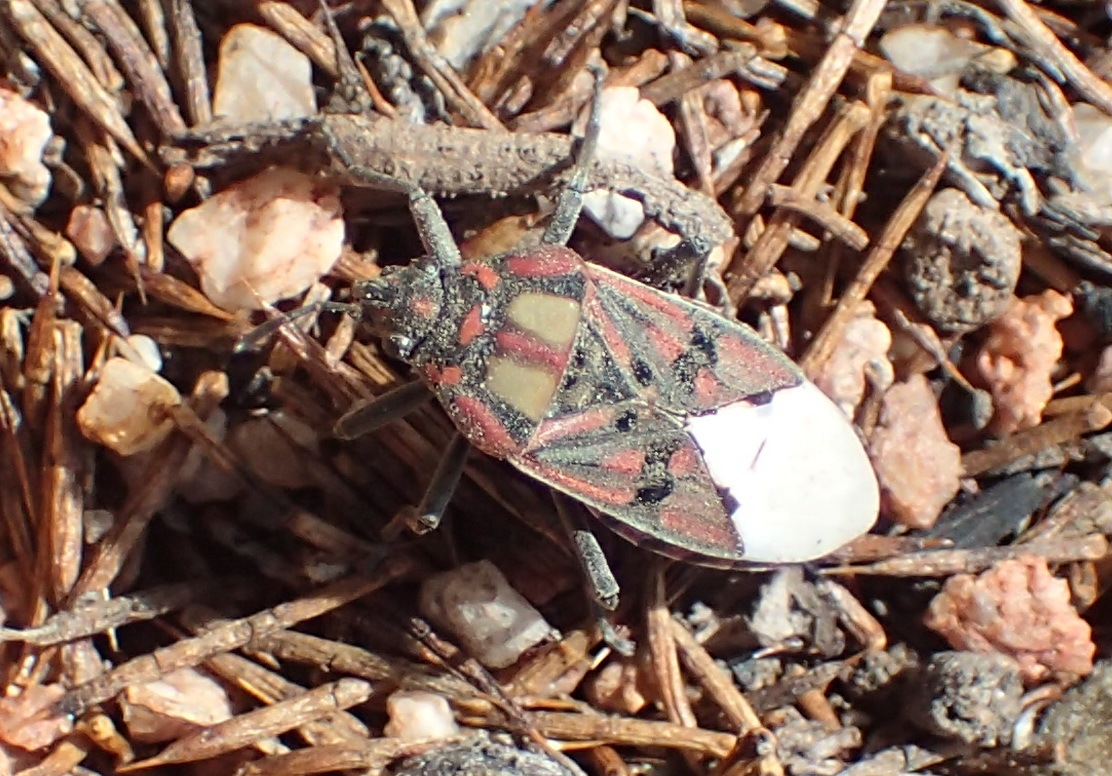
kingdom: Animalia
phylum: Arthropoda
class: Insecta
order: Hemiptera
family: Lygaeidae
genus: Spilostethus
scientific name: Spilostethus pandurus
